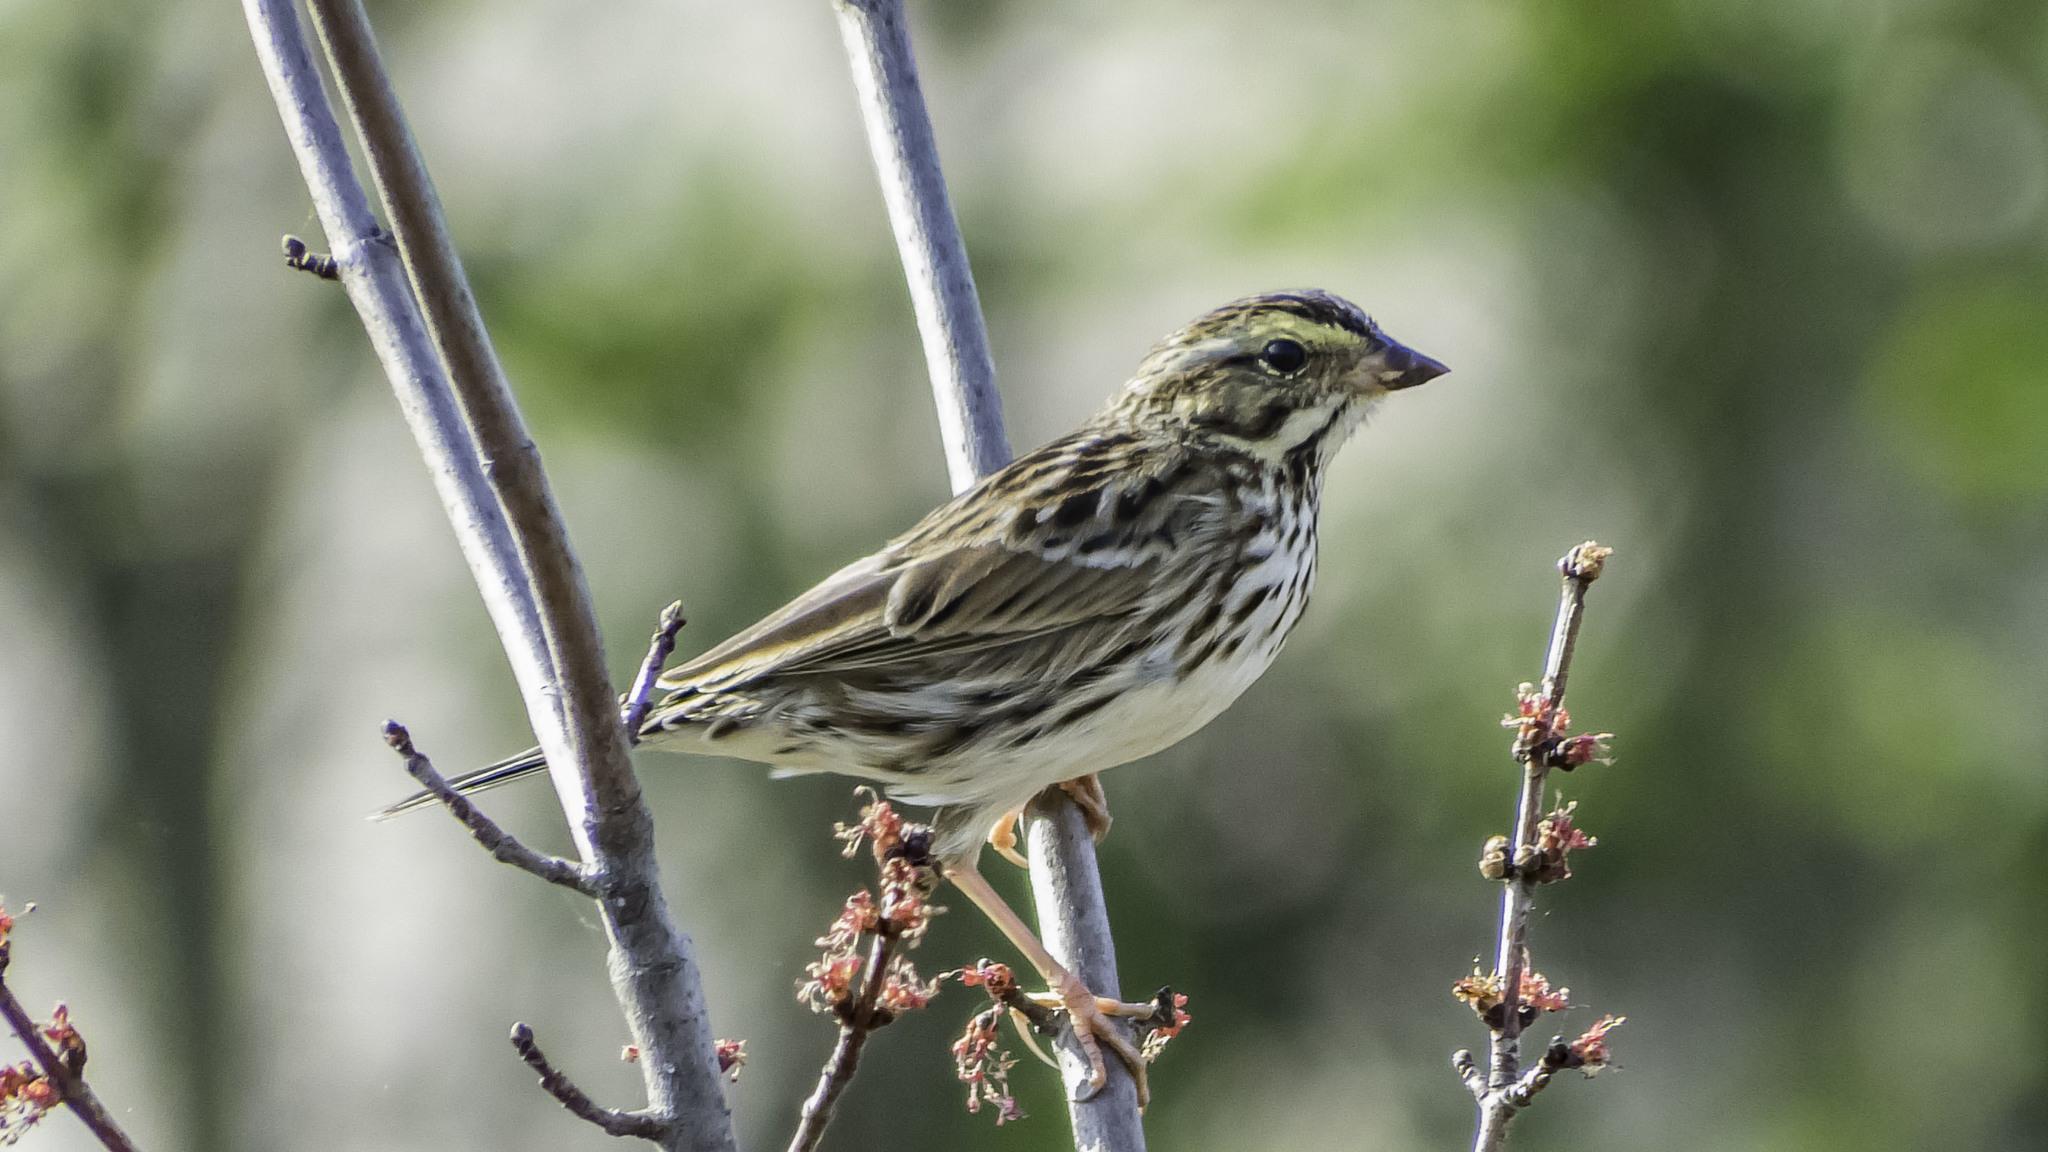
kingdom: Animalia
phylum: Chordata
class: Aves
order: Passeriformes
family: Passerellidae
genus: Passerculus
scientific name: Passerculus sandwichensis
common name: Savannah sparrow
